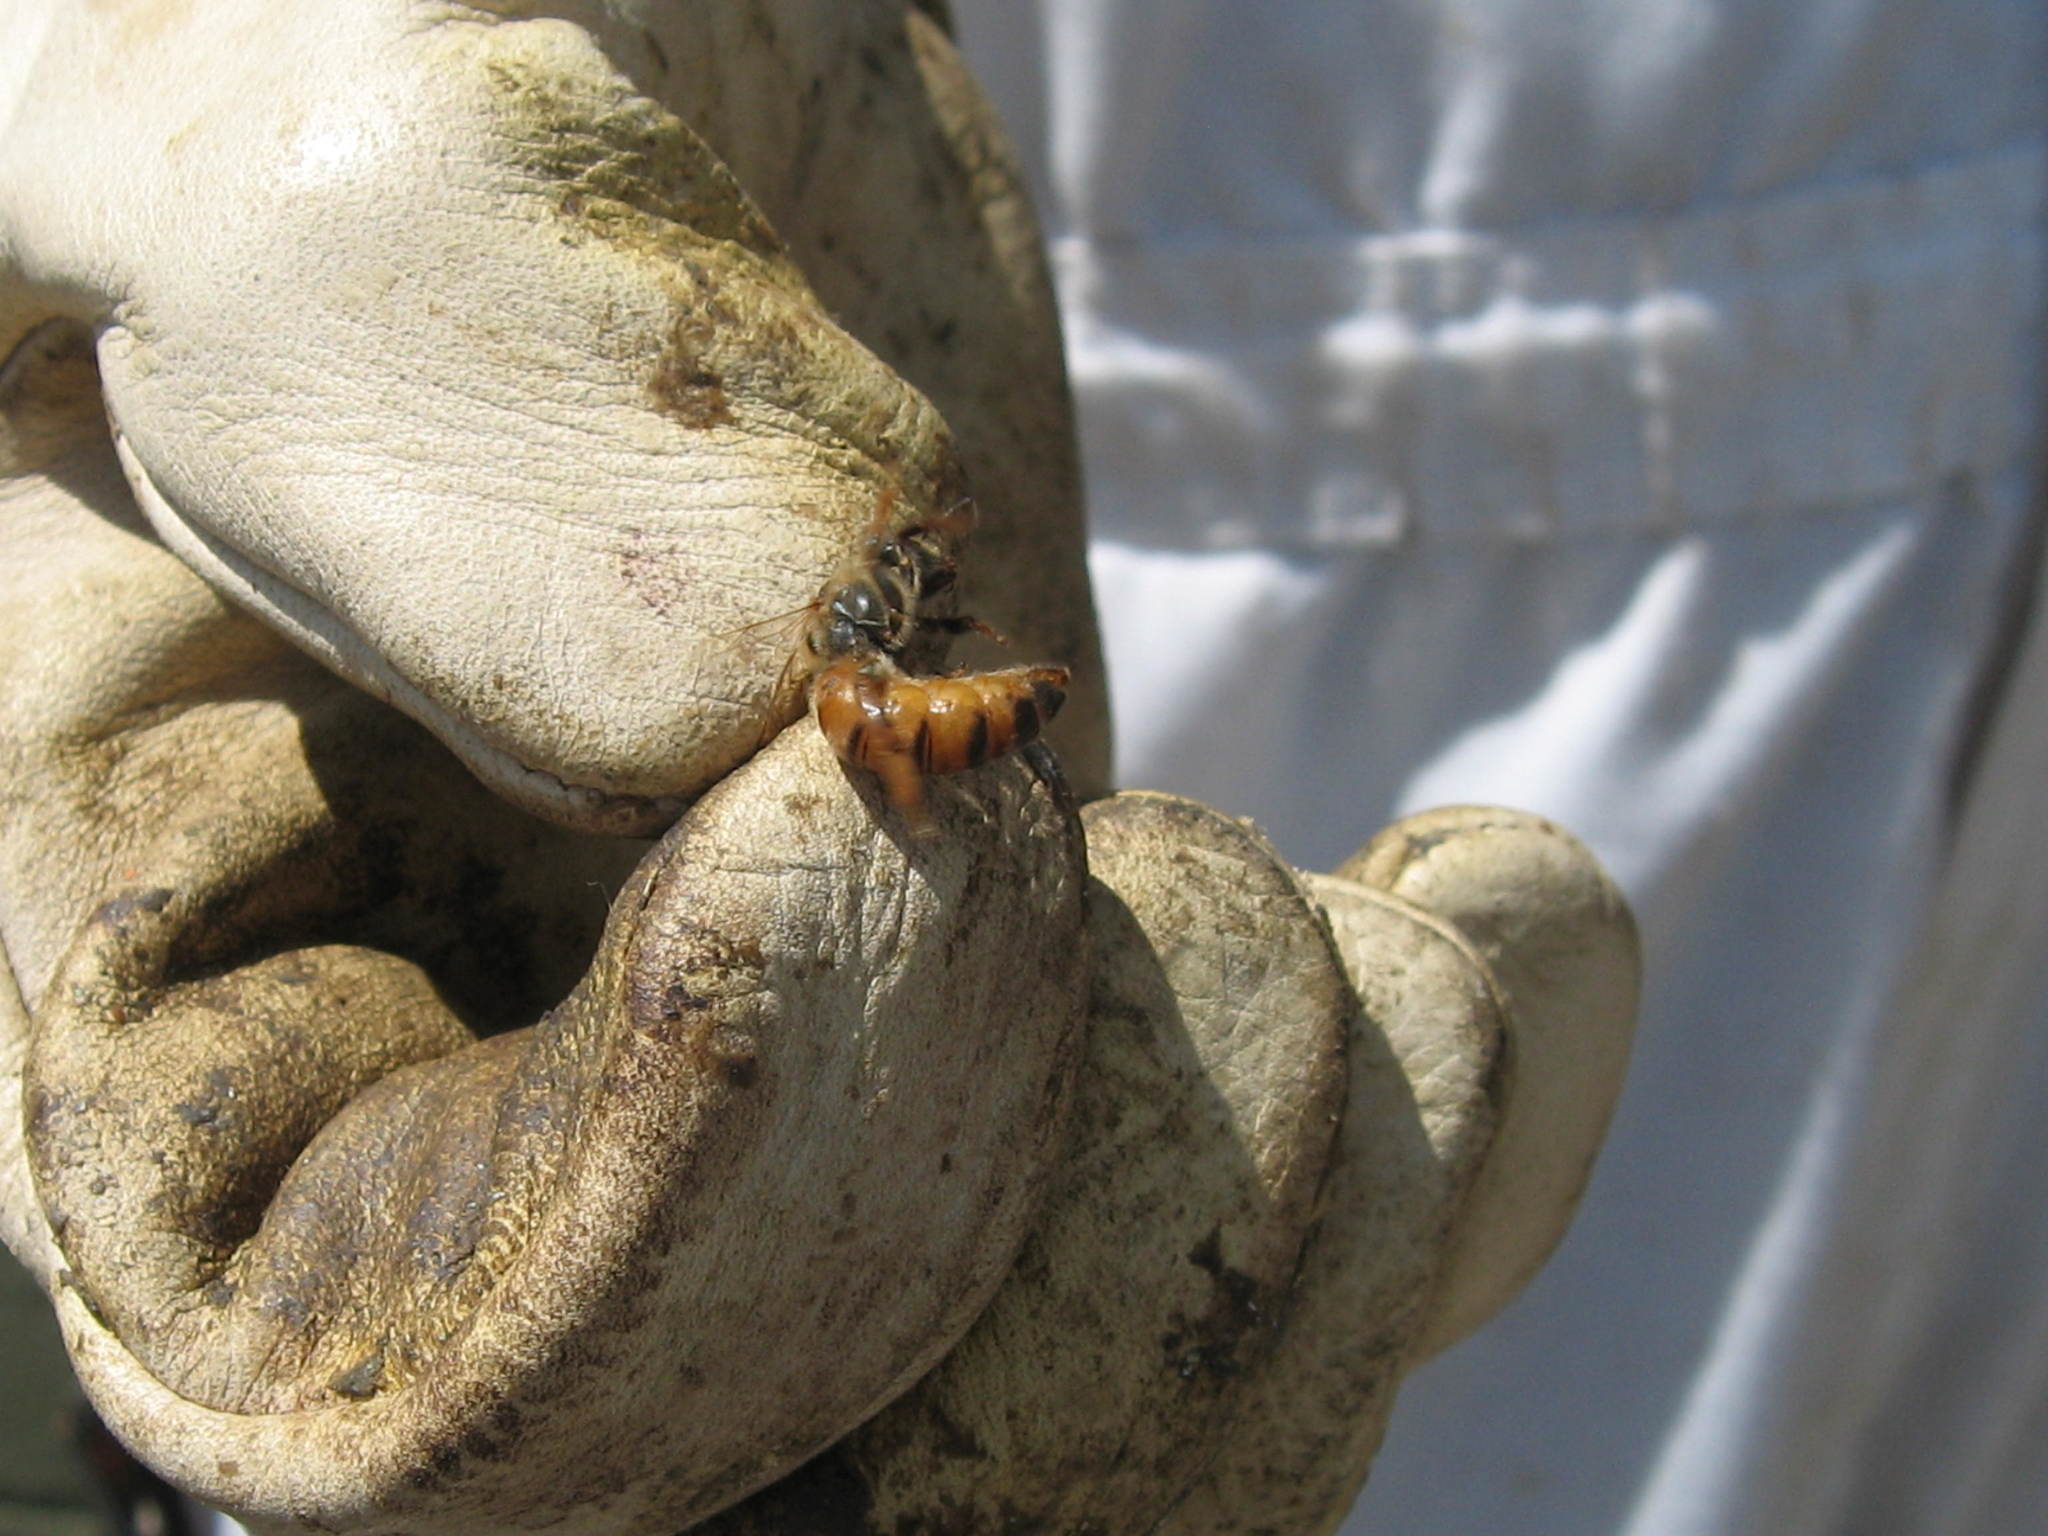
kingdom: Animalia
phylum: Arthropoda
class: Insecta
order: Hymenoptera
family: Apidae
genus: Apis
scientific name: Apis mellifera
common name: Honey bee
